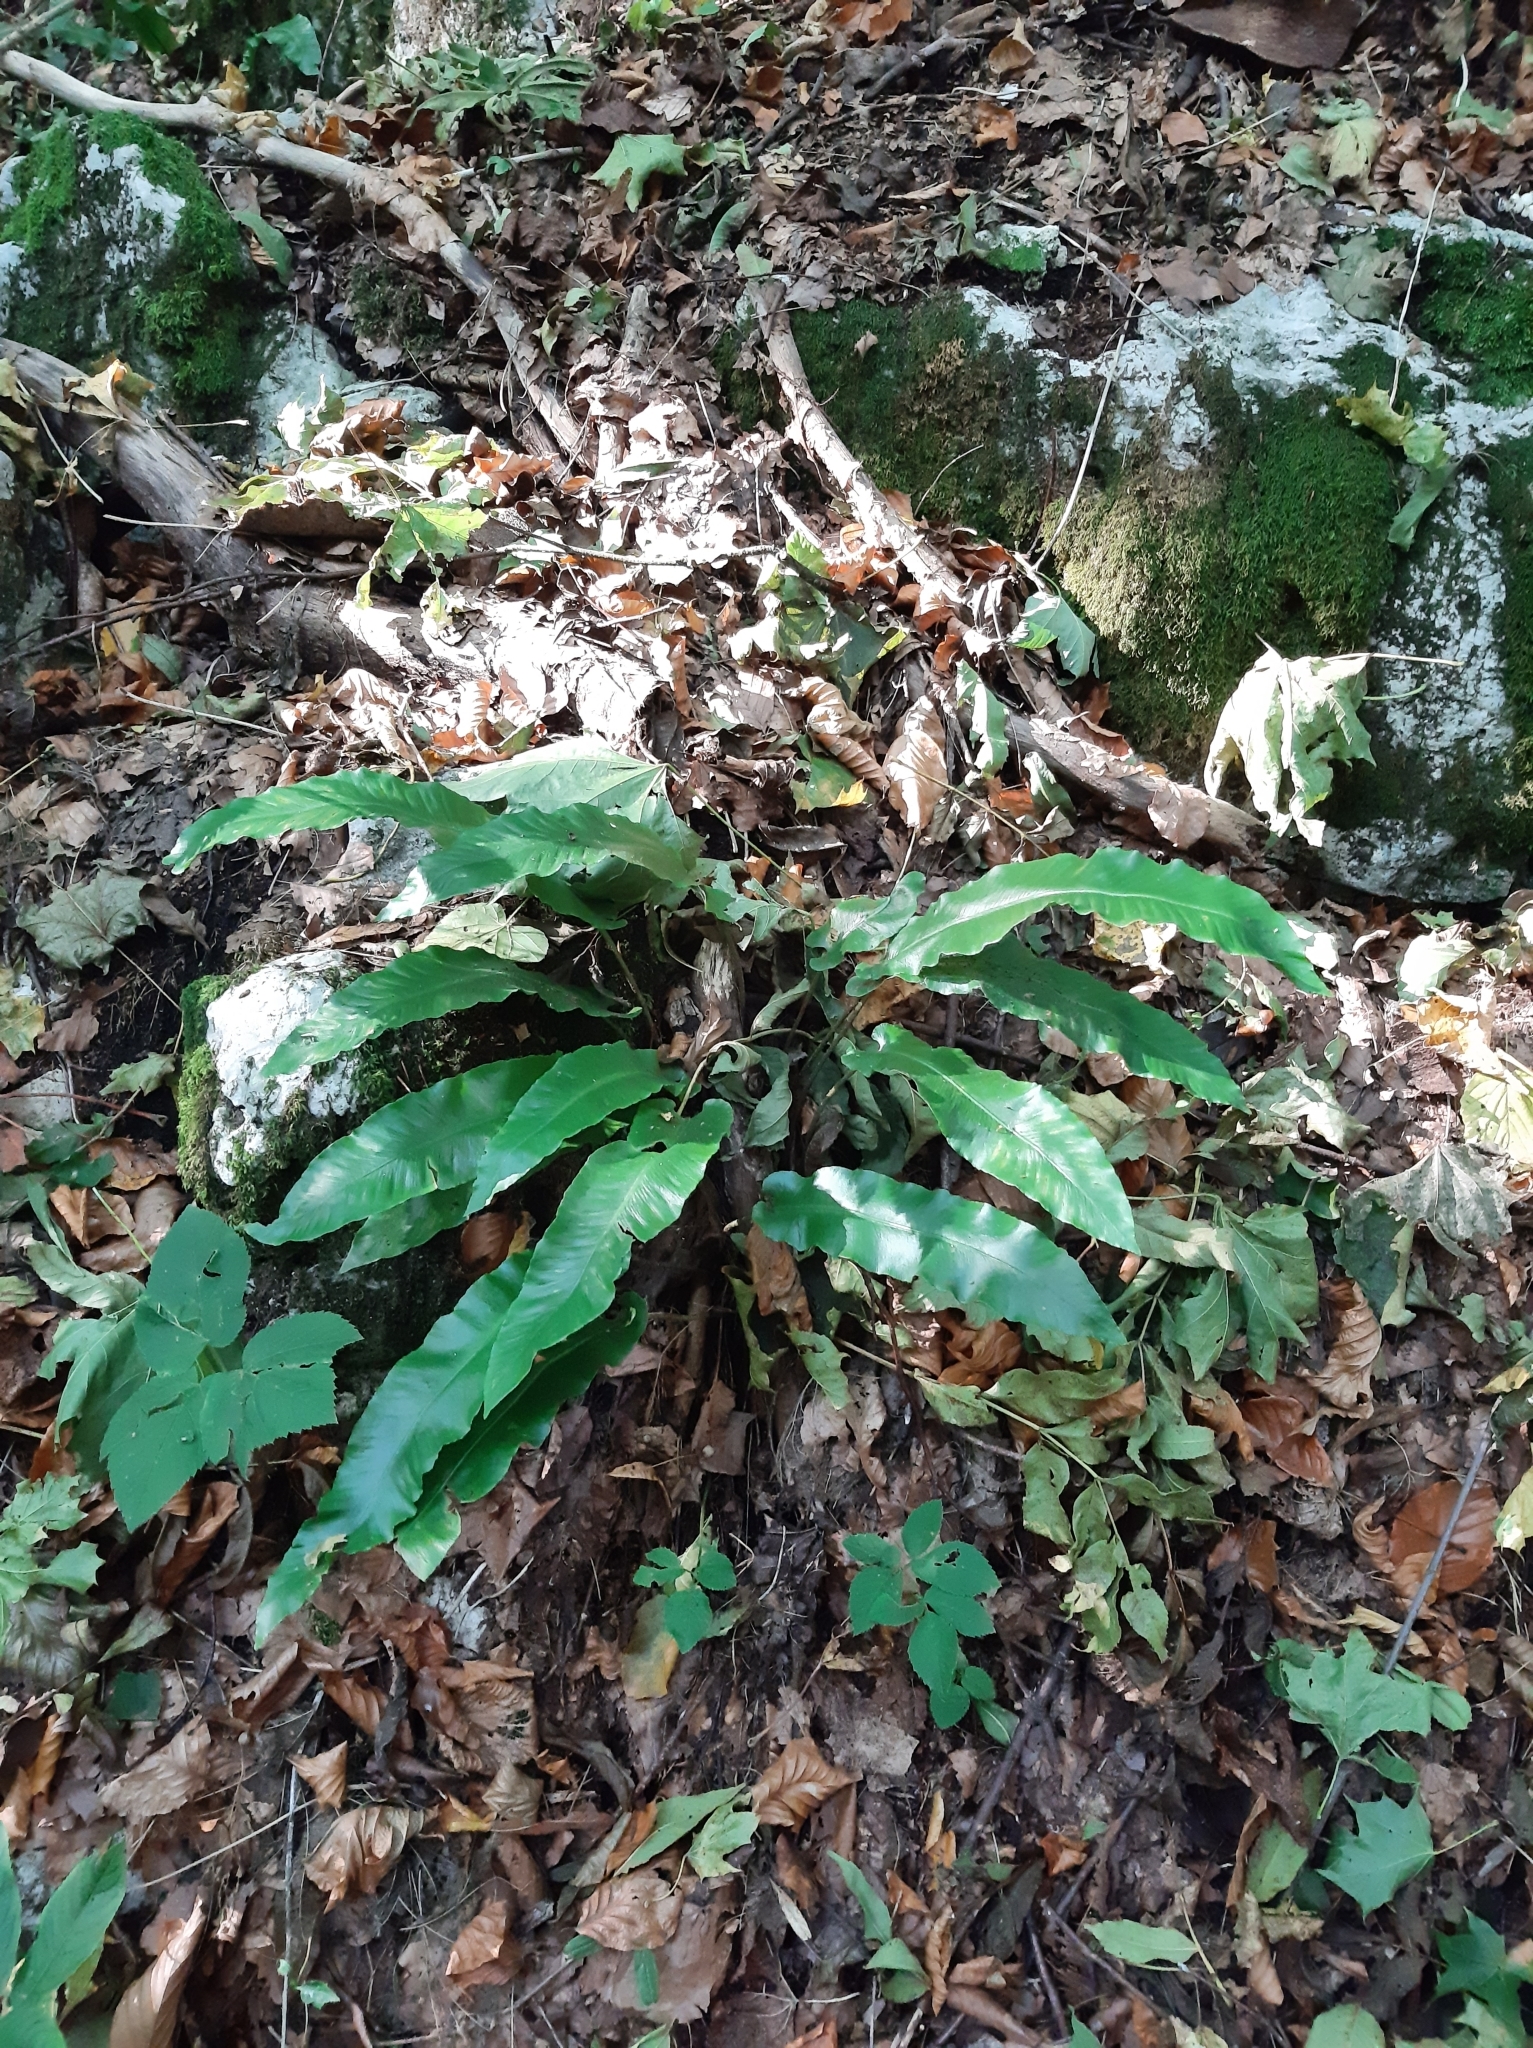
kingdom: Plantae
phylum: Tracheophyta
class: Polypodiopsida
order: Polypodiales
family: Aspleniaceae
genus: Asplenium
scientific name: Asplenium scolopendrium
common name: Hart's-tongue fern
